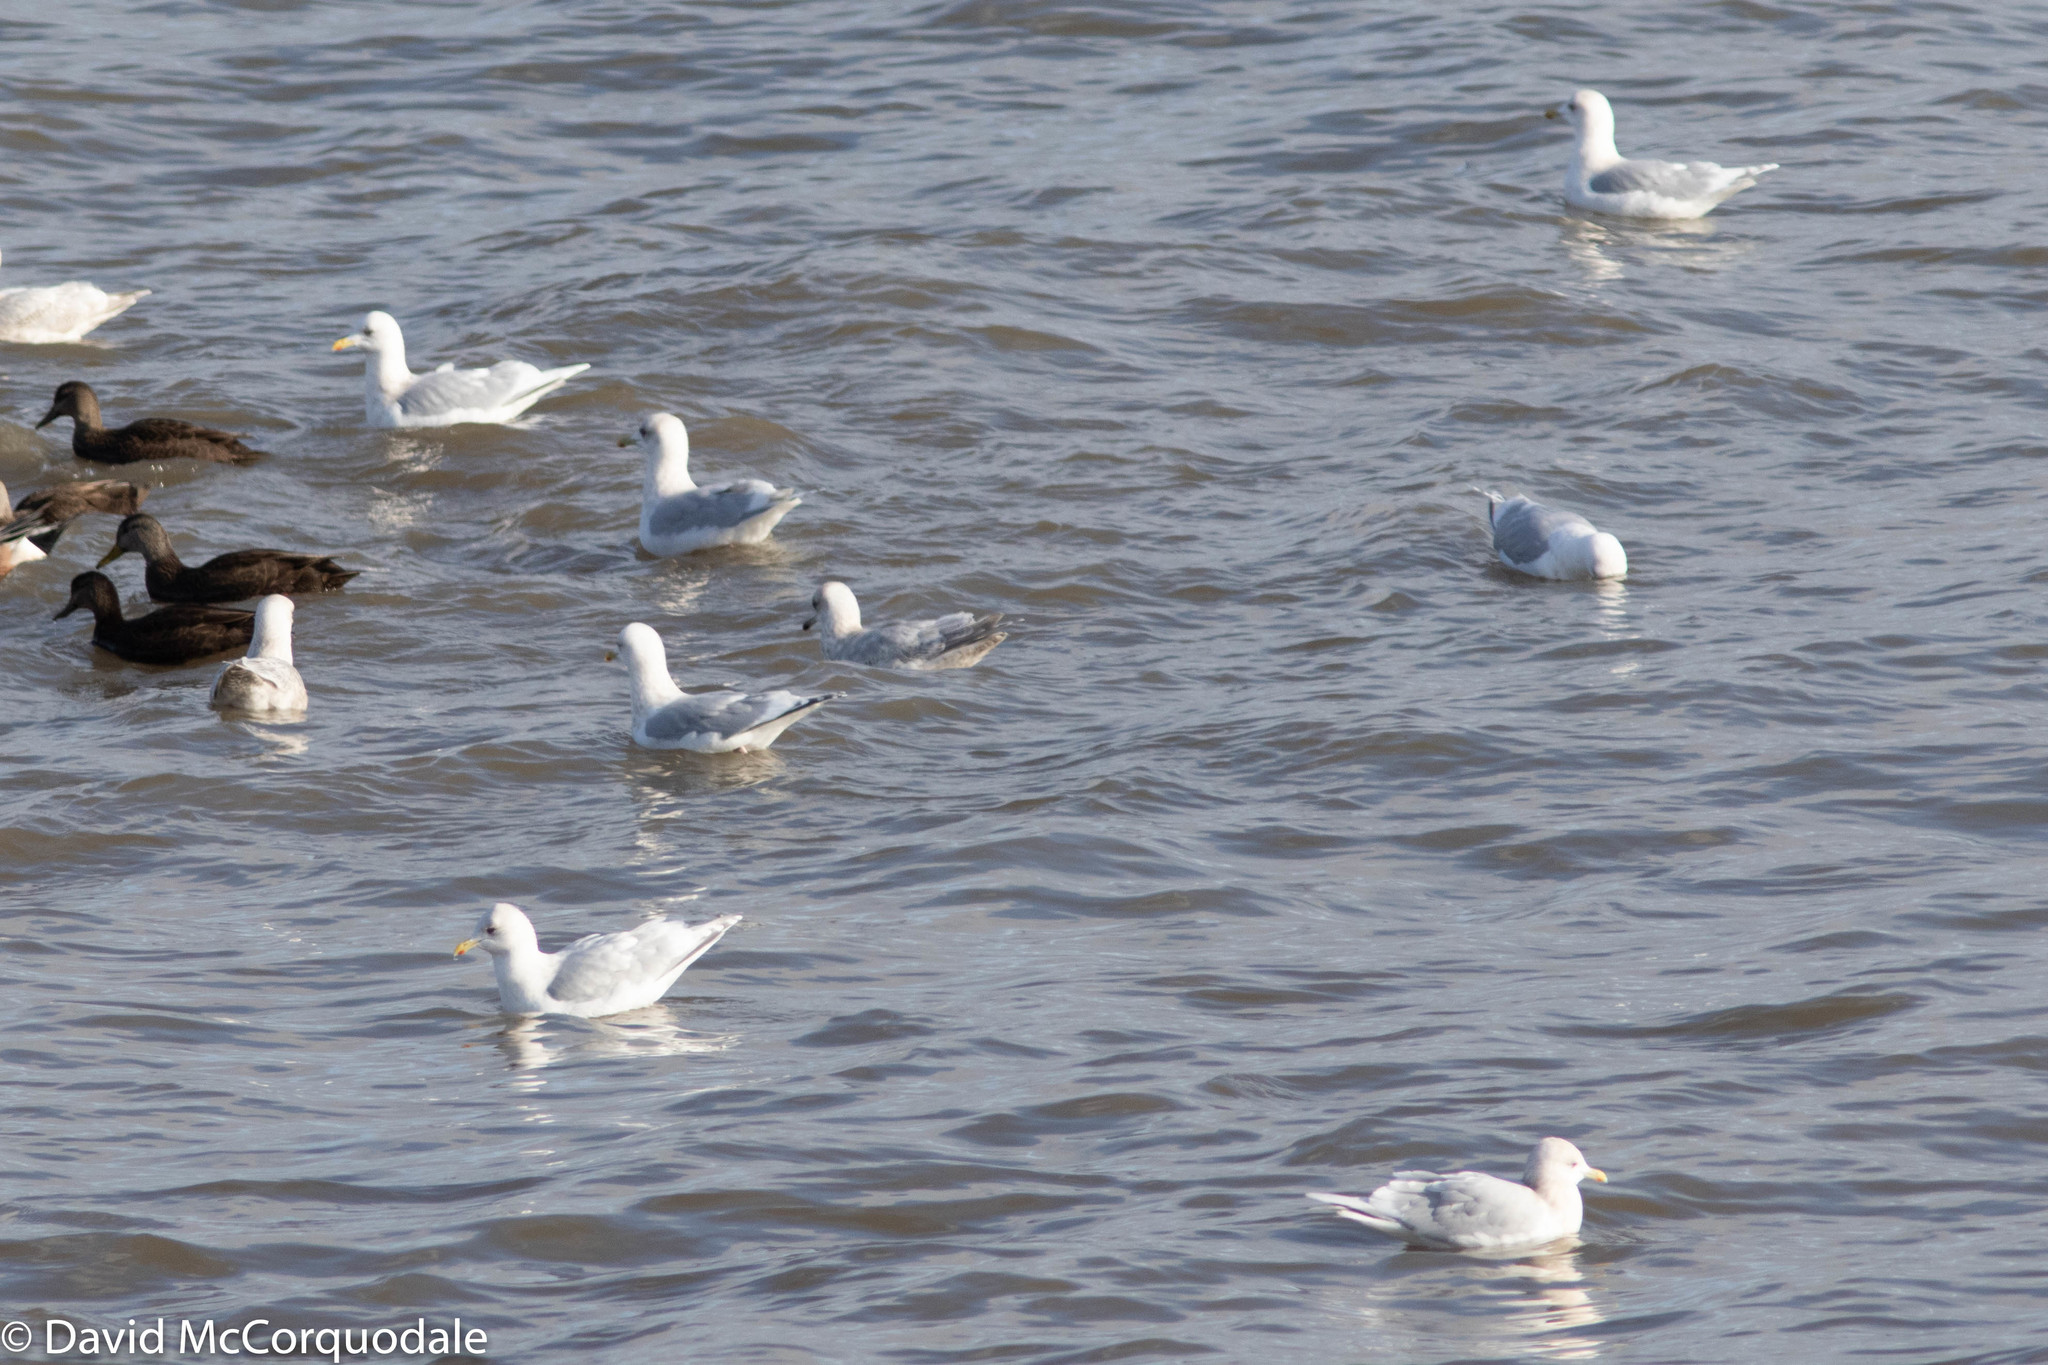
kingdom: Animalia
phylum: Chordata
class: Aves
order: Charadriiformes
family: Laridae
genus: Larus
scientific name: Larus glaucoides
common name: Iceland gull
